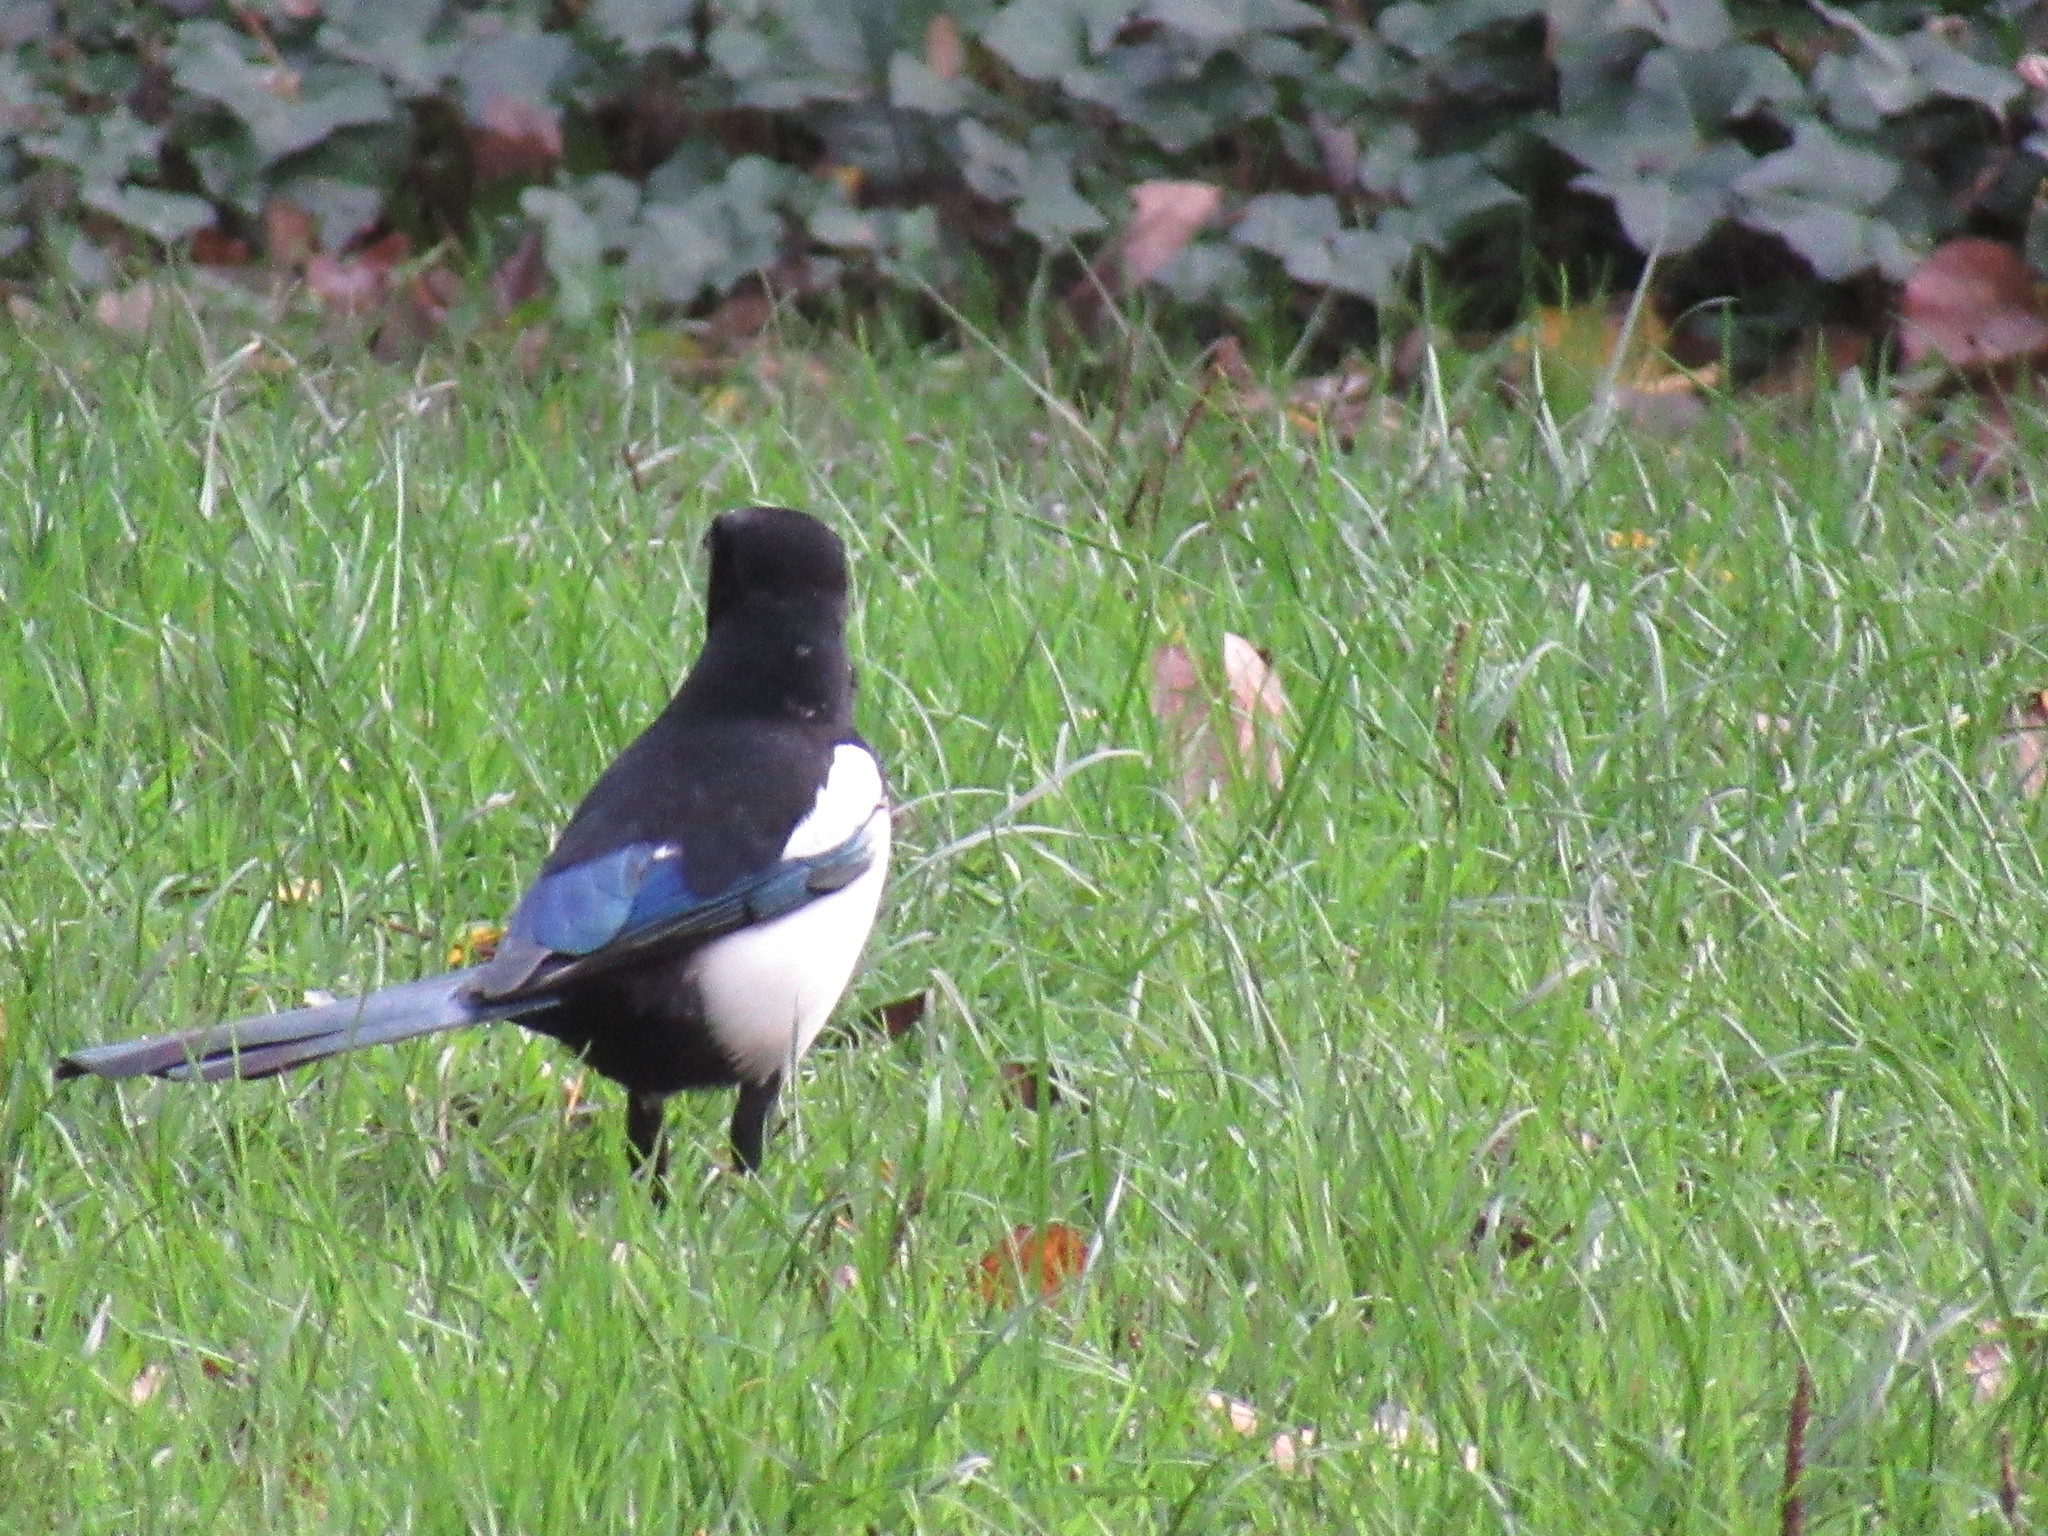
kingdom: Animalia
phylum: Chordata
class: Aves
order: Passeriformes
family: Corvidae
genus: Pica
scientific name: Pica pica
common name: Eurasian magpie
